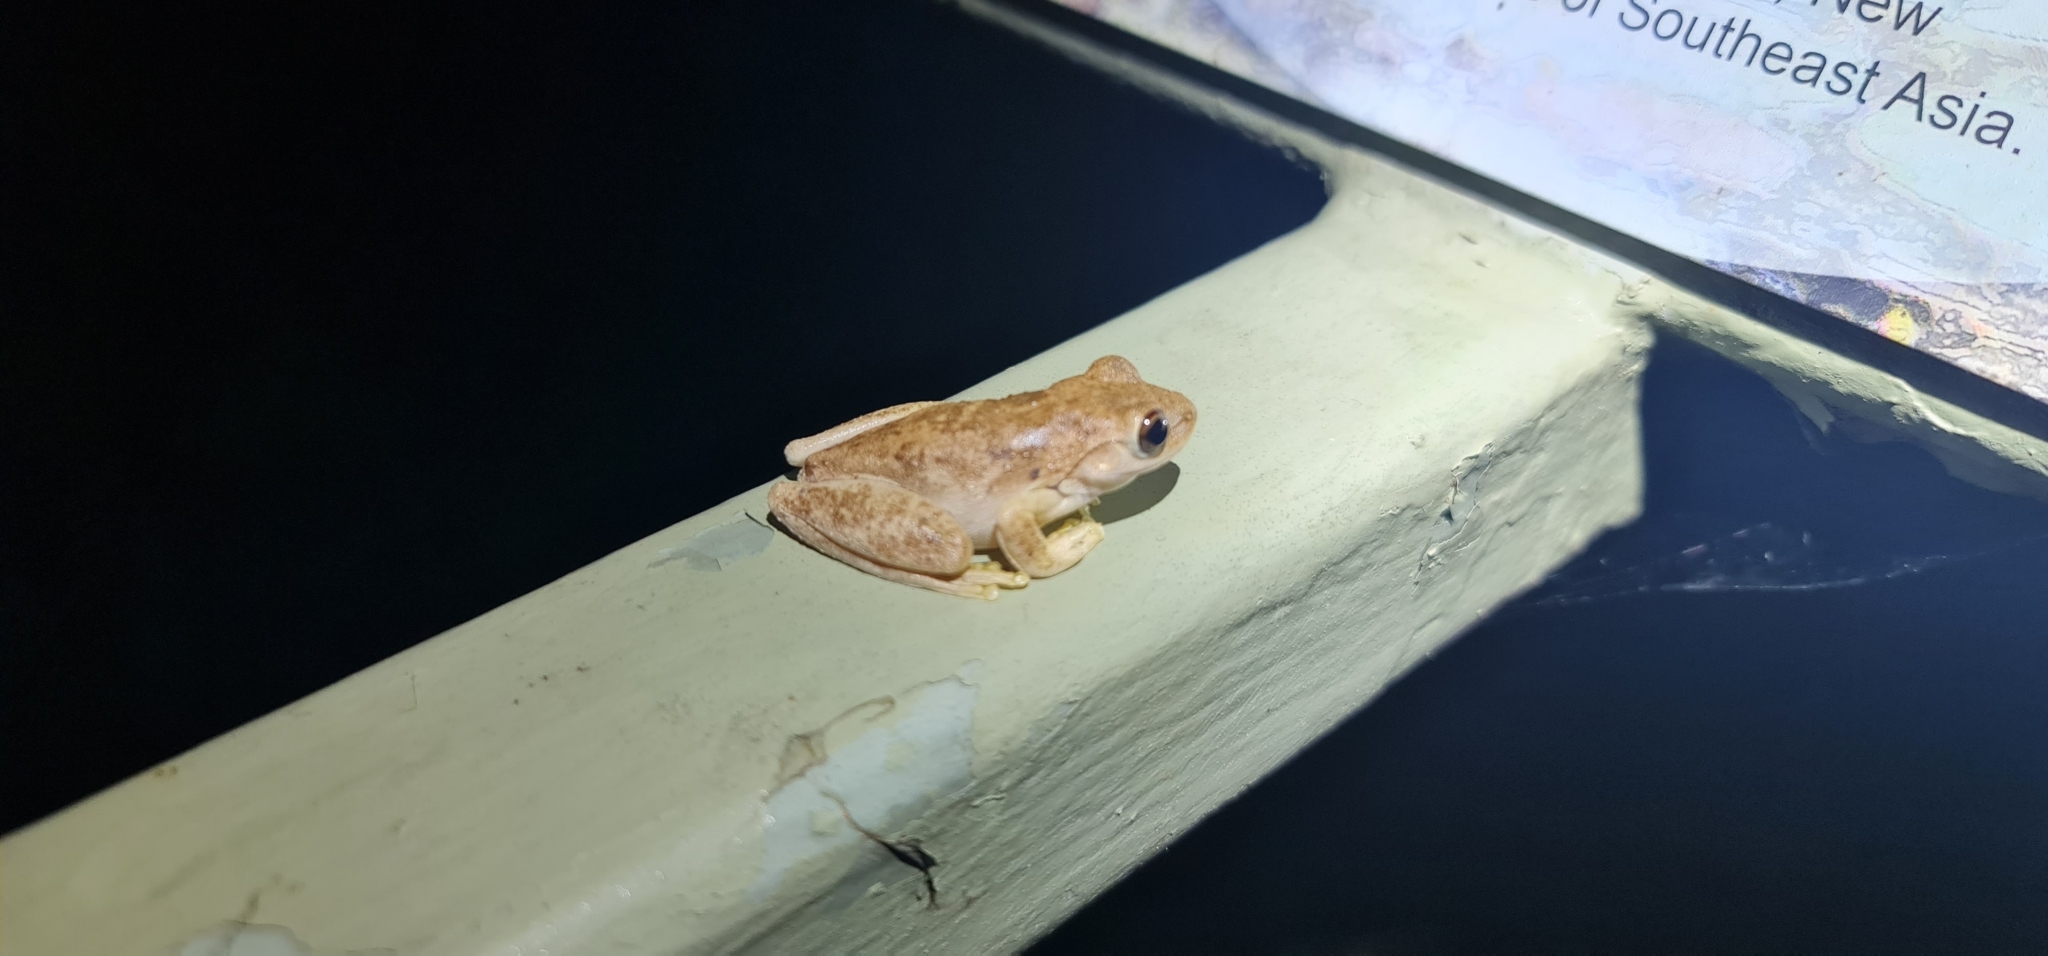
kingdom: Animalia
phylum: Chordata
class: Amphibia
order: Anura
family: Pelodryadidae
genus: Litoria
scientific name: Litoria
